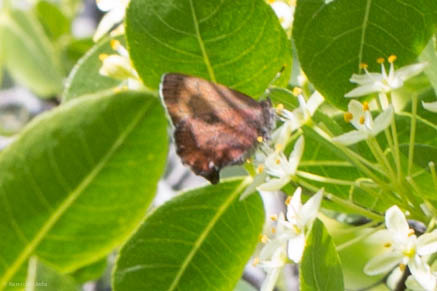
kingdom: Animalia
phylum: Arthropoda
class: Insecta
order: Lepidoptera
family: Lycaenidae
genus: Incisalia
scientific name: Incisalia irioides
